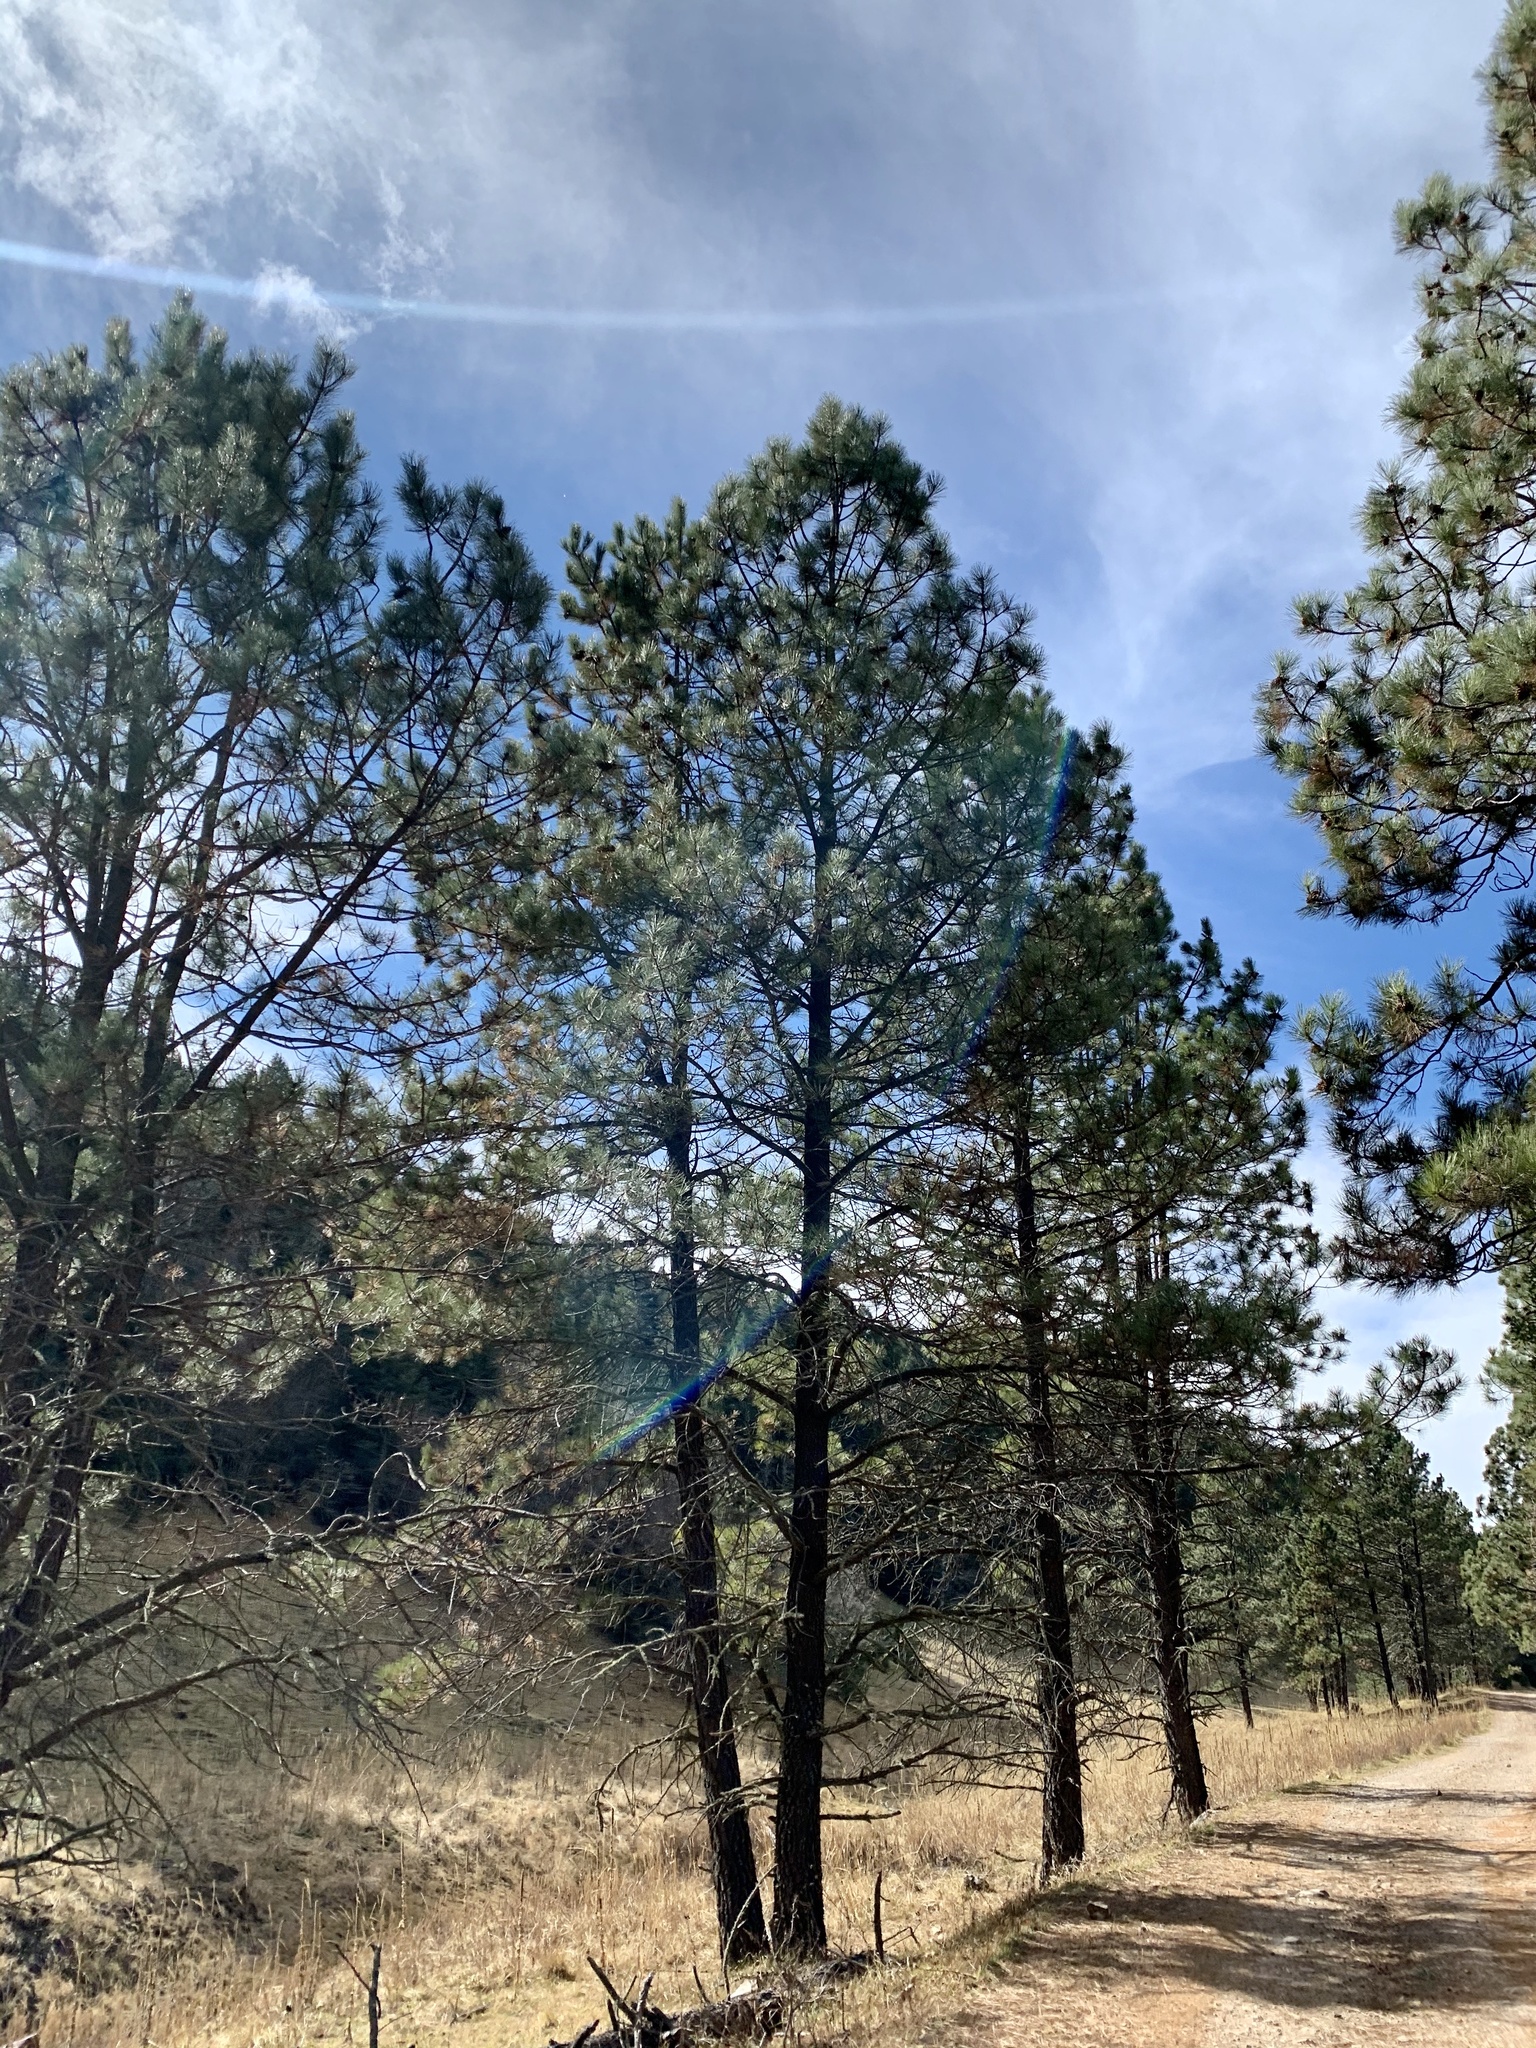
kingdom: Plantae
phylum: Tracheophyta
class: Pinopsida
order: Pinales
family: Pinaceae
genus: Pinus
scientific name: Pinus ponderosa
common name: Western yellow-pine
